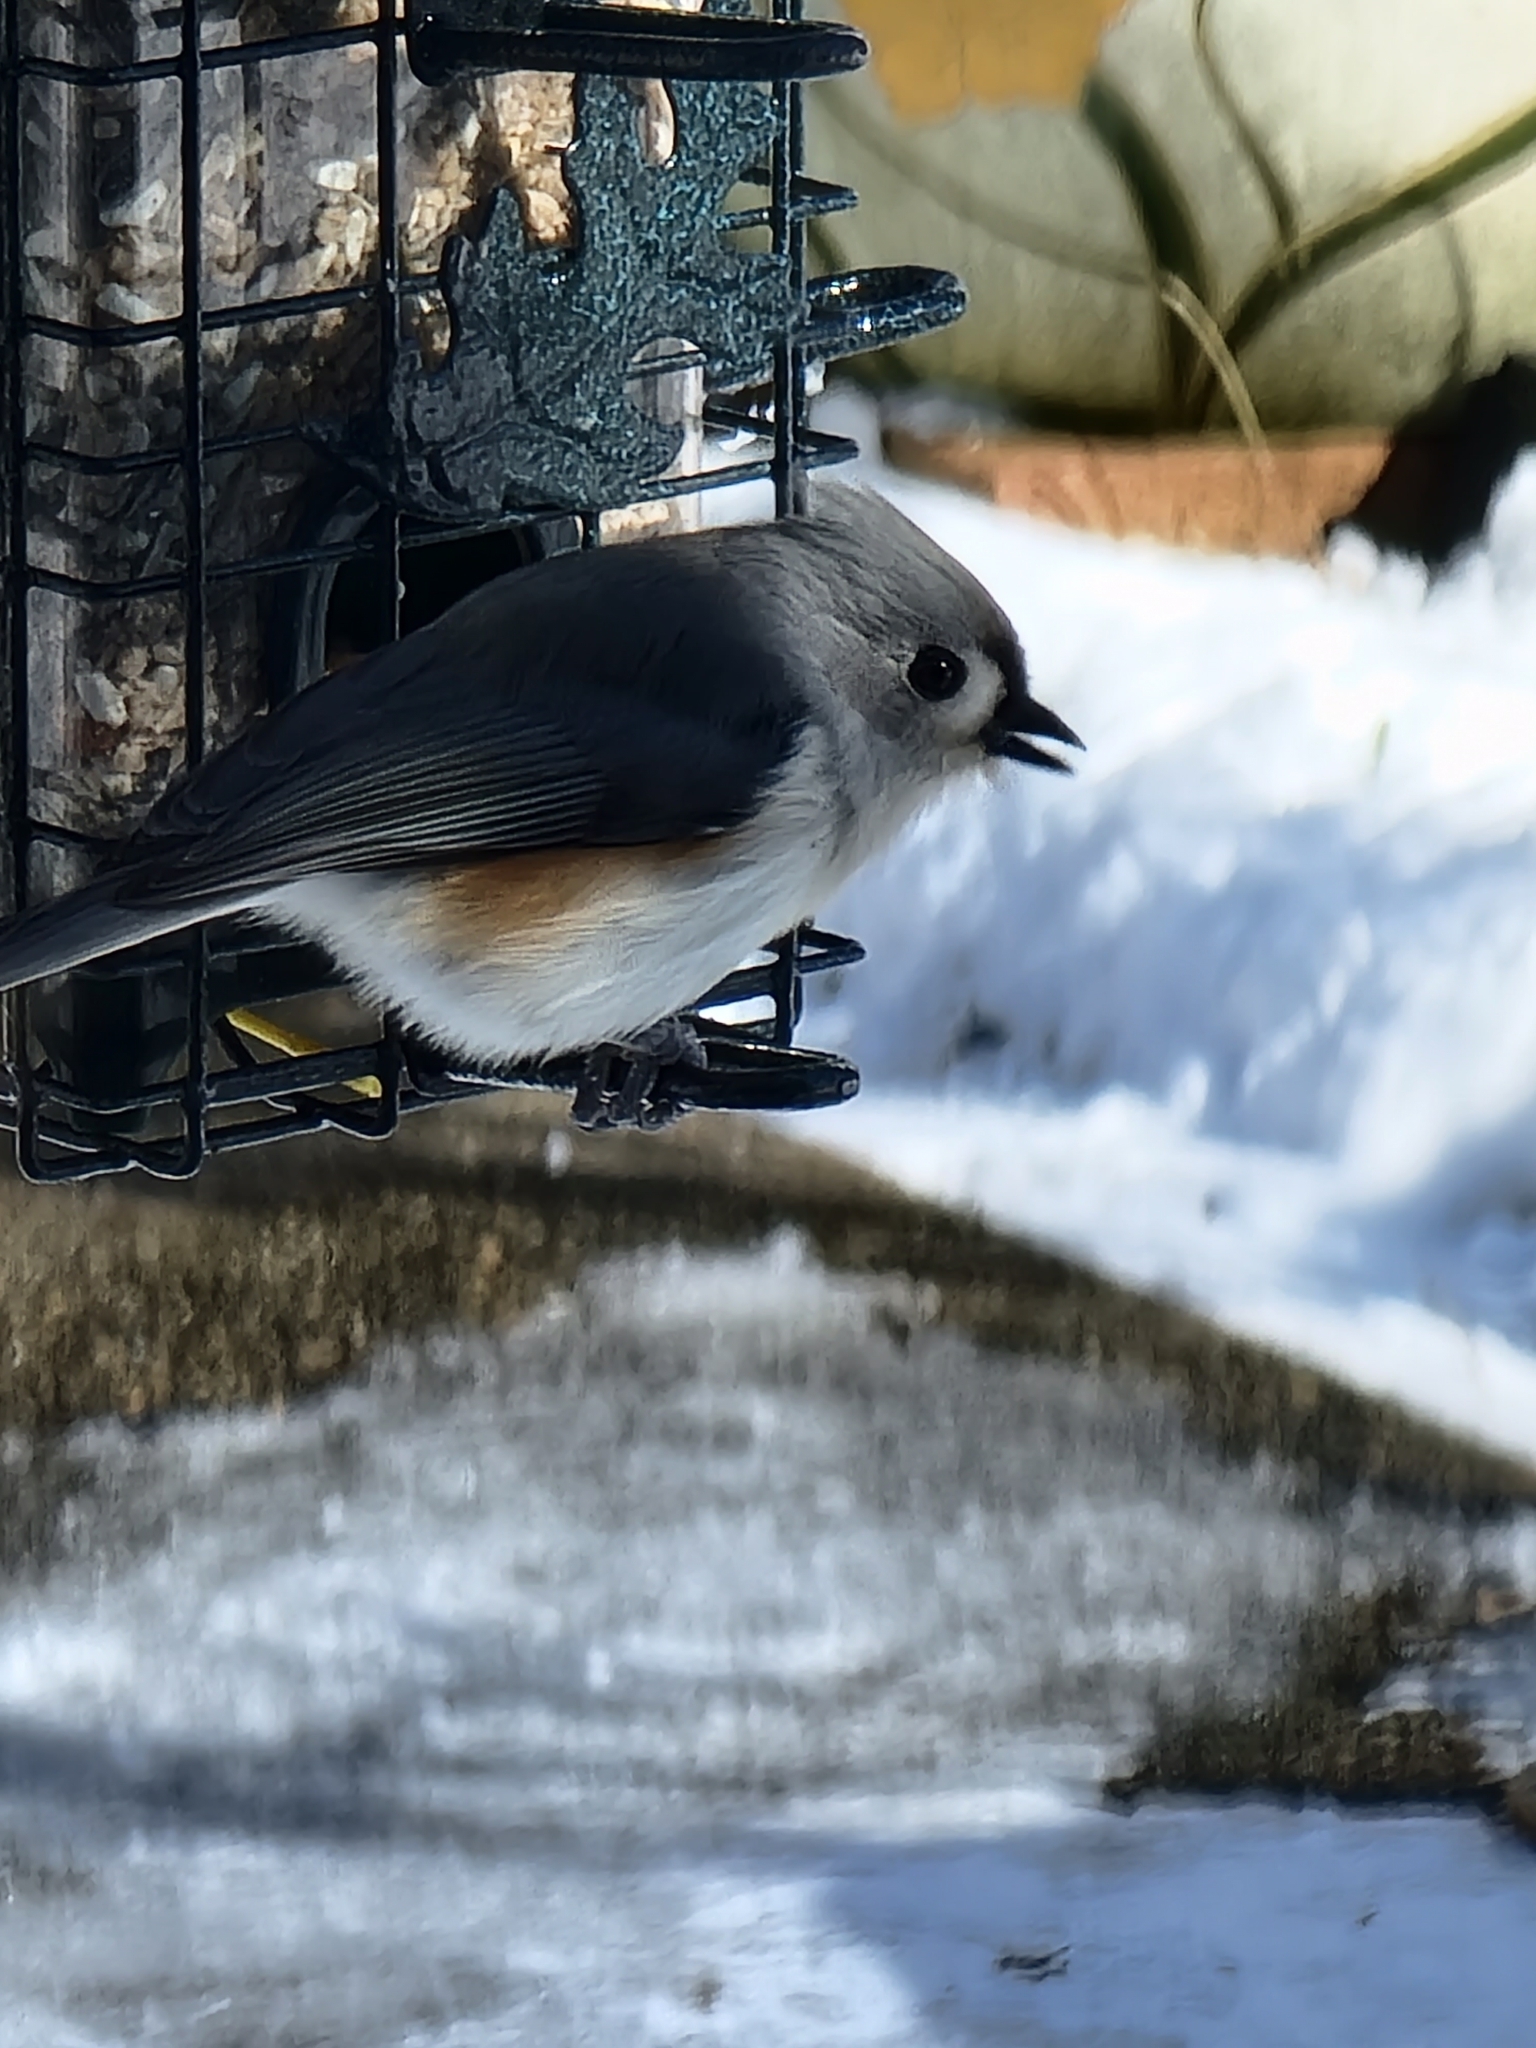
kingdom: Animalia
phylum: Chordata
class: Aves
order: Passeriformes
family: Paridae
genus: Baeolophus
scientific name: Baeolophus bicolor
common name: Tufted titmouse
